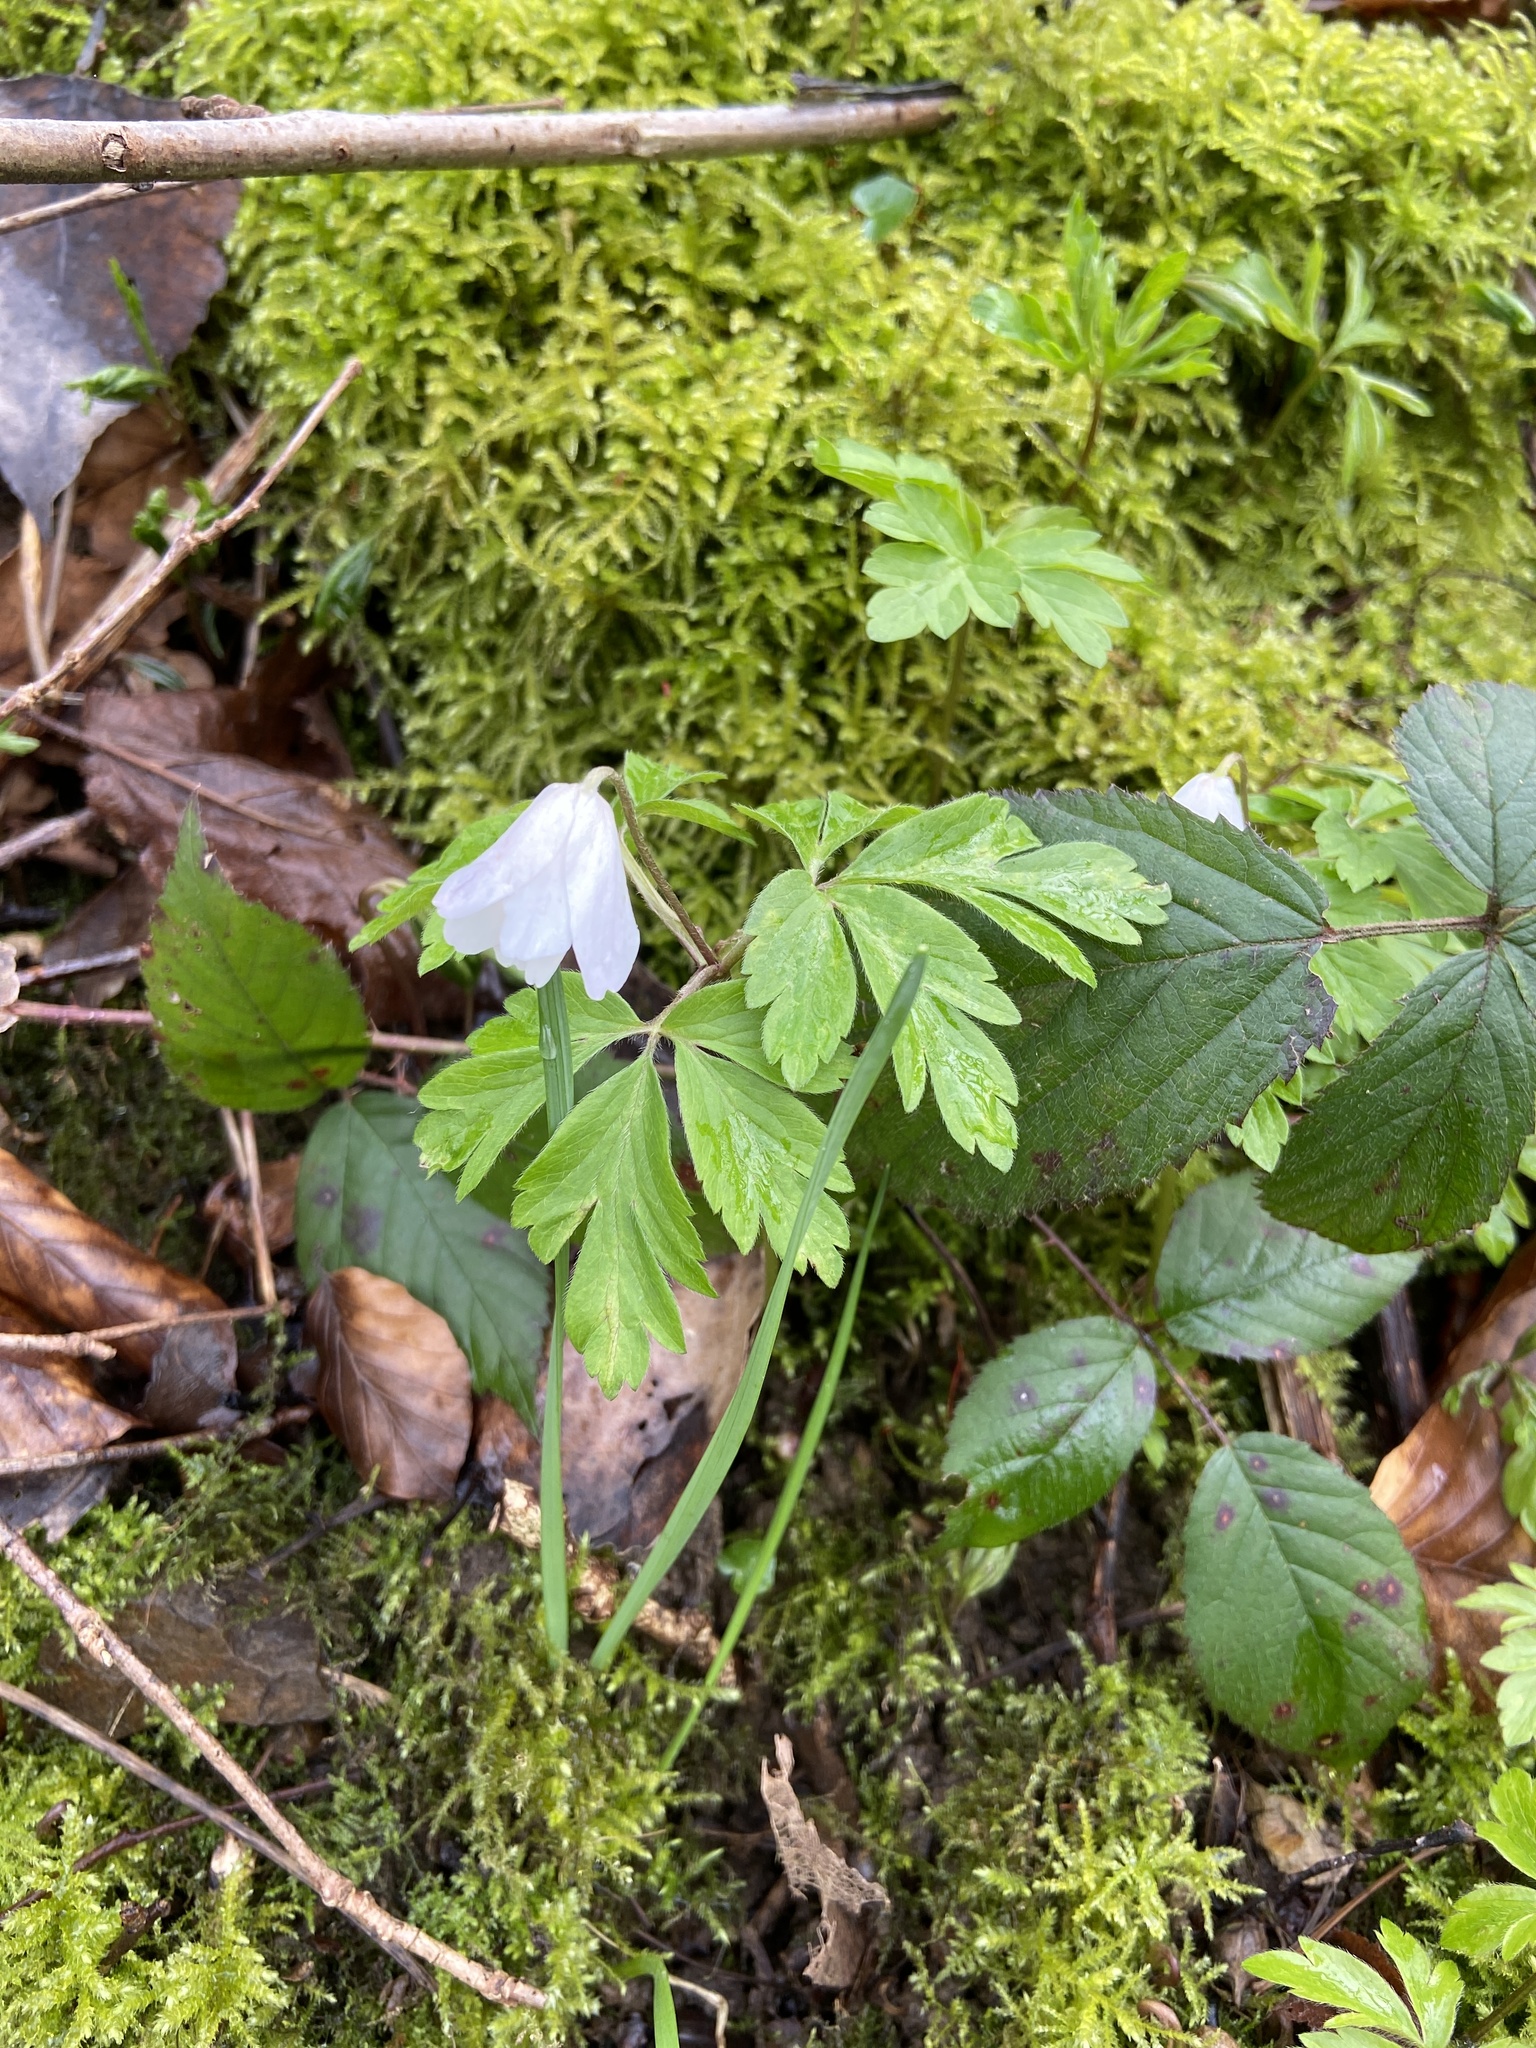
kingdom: Plantae
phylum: Tracheophyta
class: Magnoliopsida
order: Ranunculales
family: Ranunculaceae
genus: Anemone
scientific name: Anemone nemorosa
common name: Wood anemone
